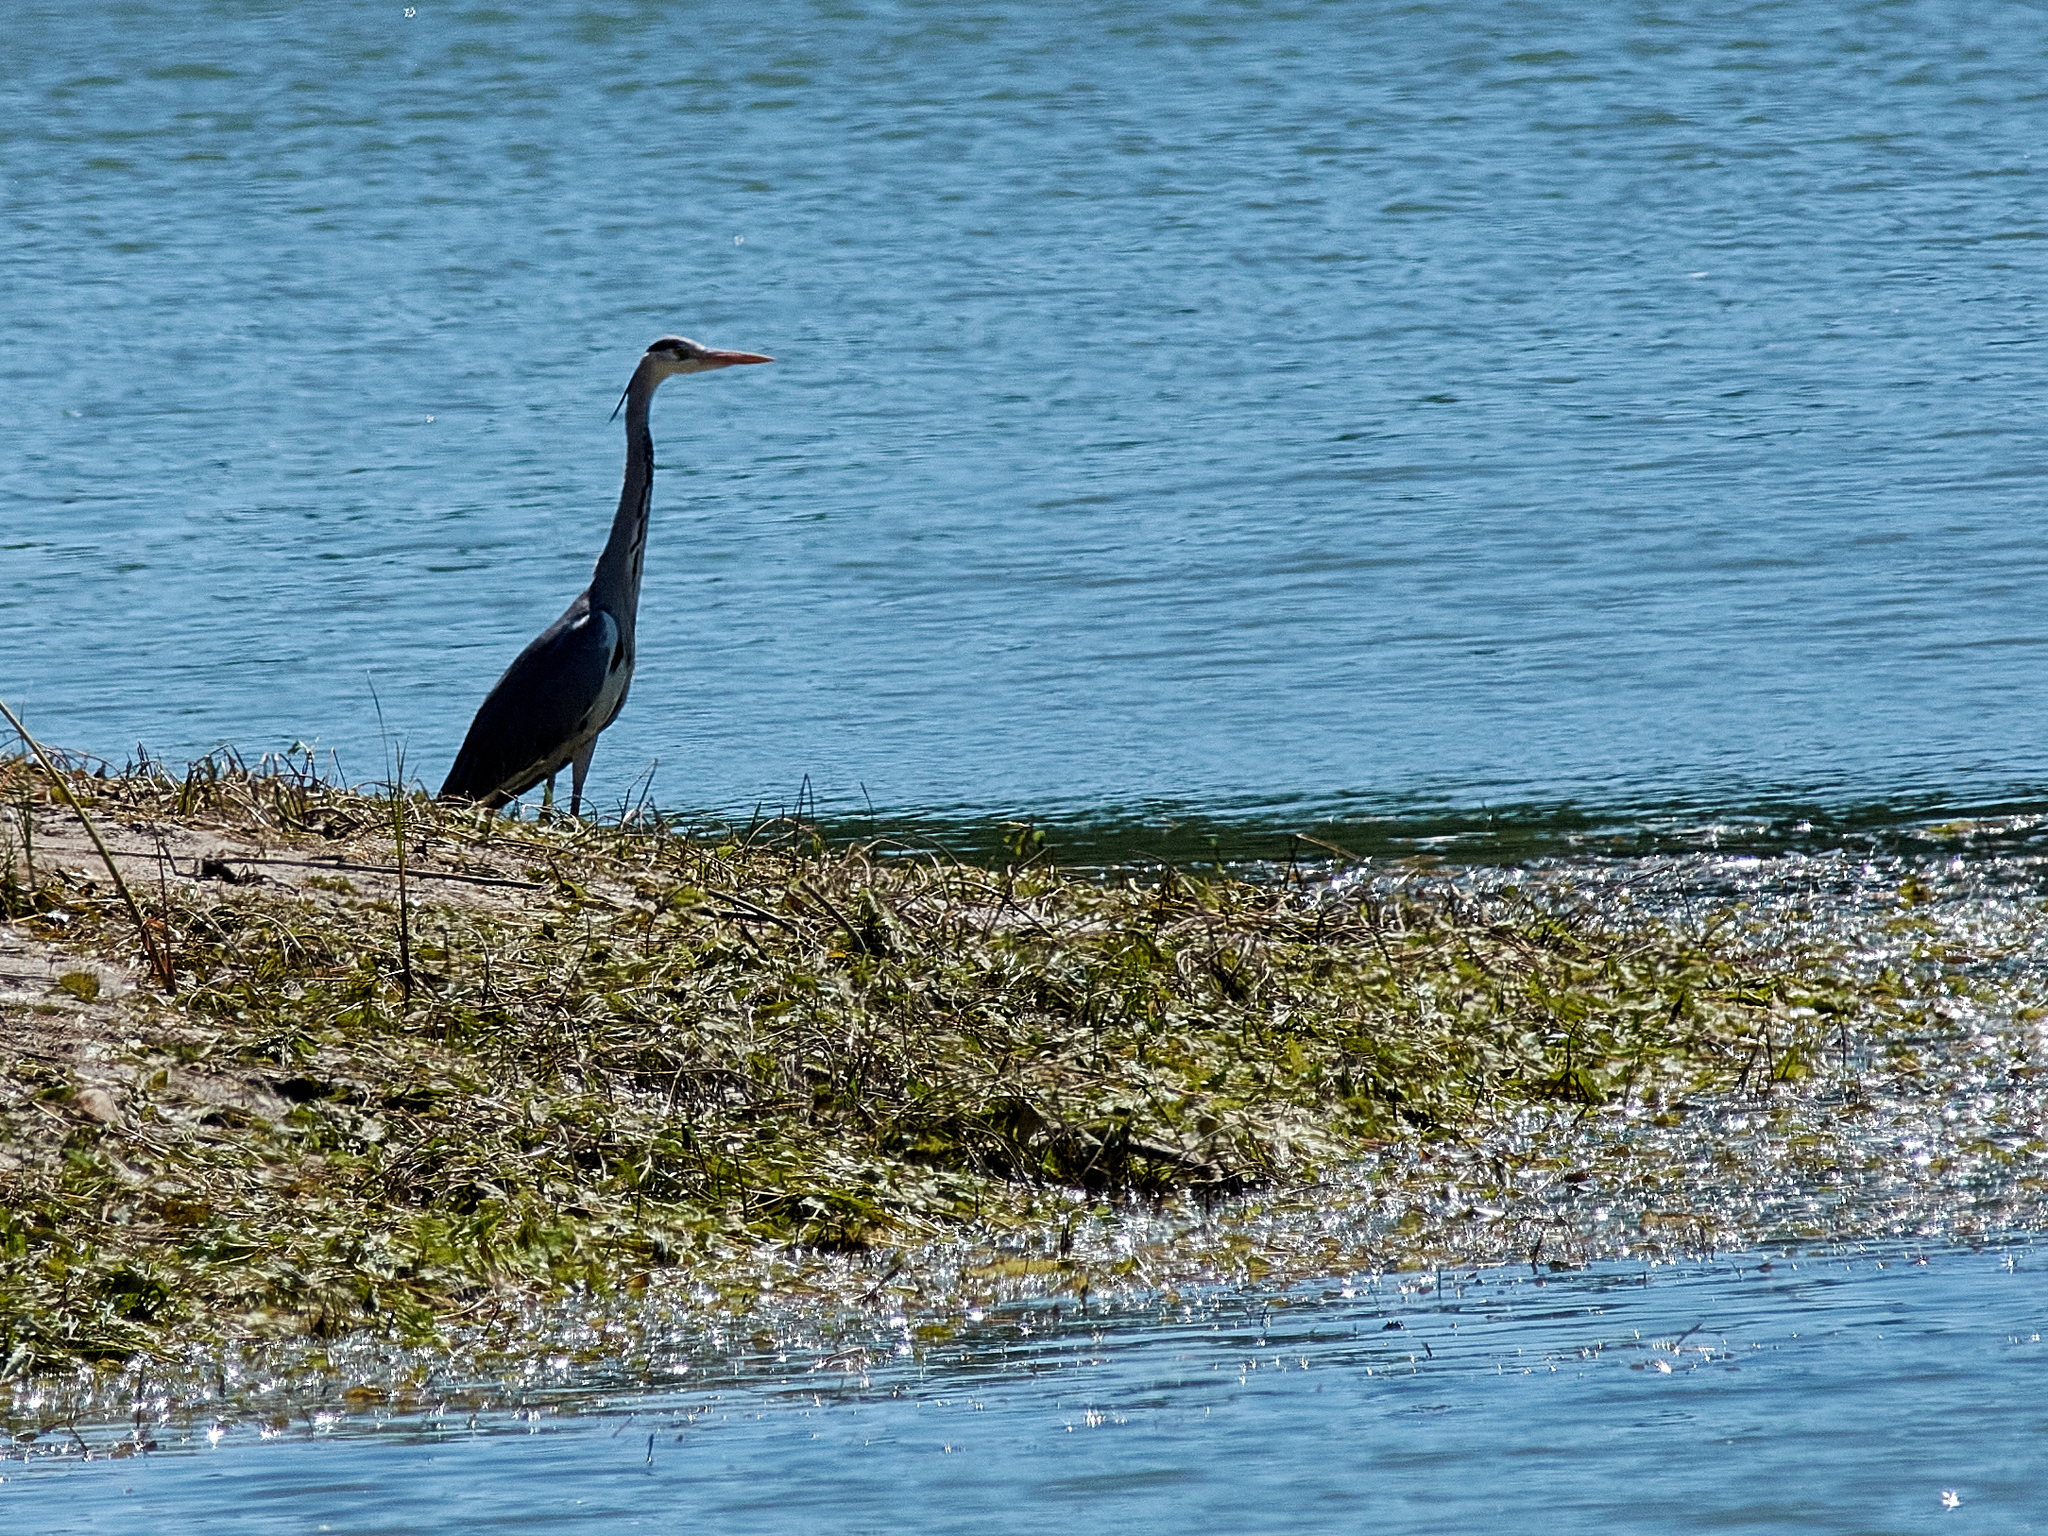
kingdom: Animalia
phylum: Chordata
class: Aves
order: Pelecaniformes
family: Ardeidae
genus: Ardea
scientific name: Ardea cinerea
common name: Grey heron
